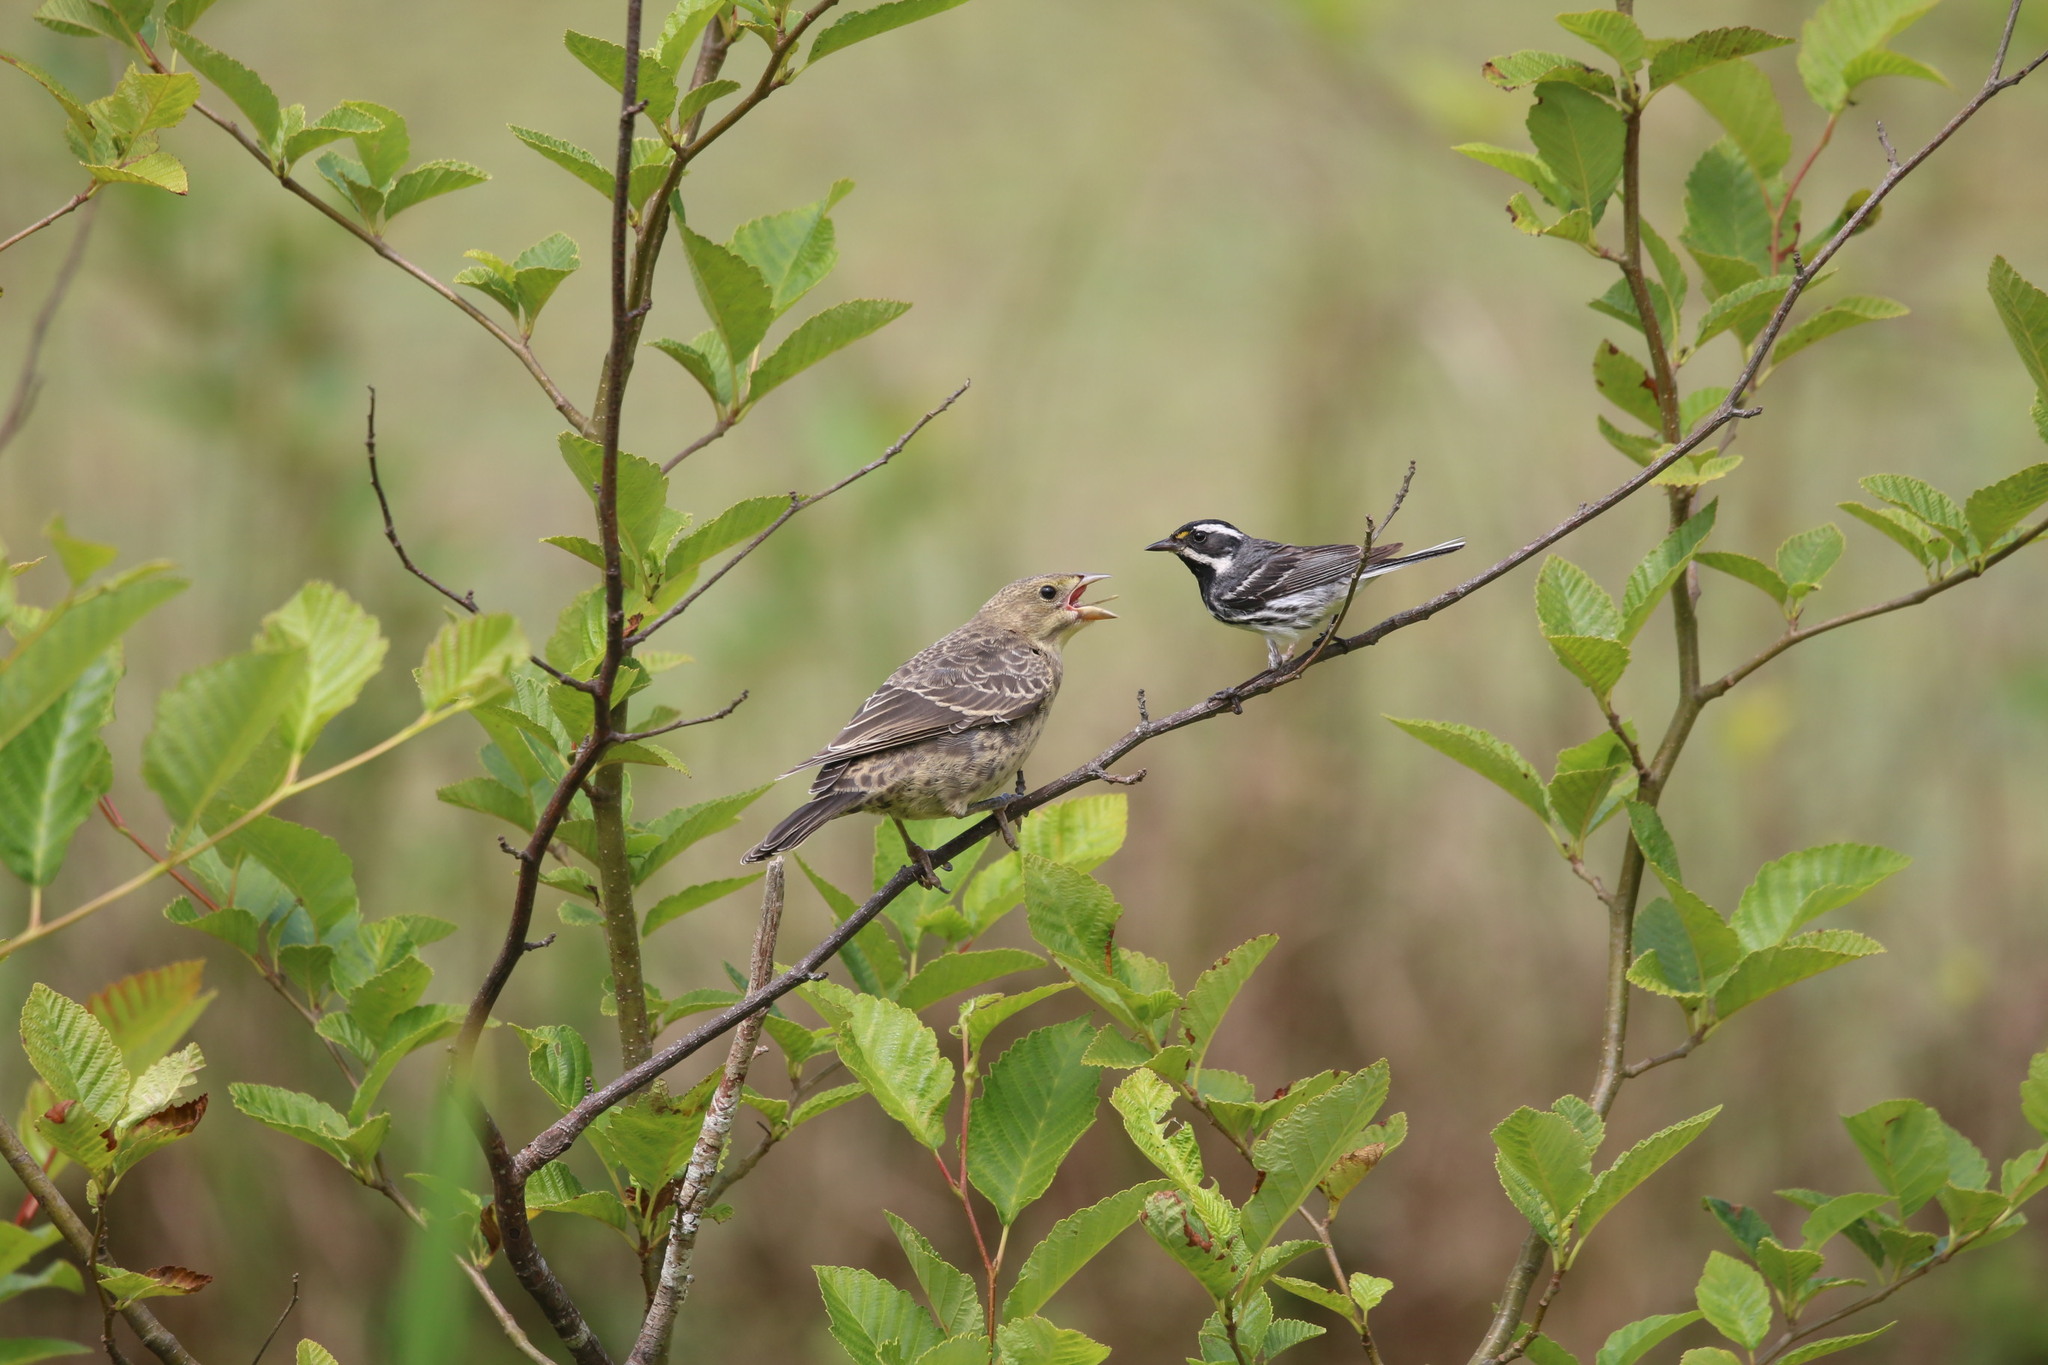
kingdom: Animalia
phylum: Chordata
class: Aves
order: Passeriformes
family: Parulidae
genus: Setophaga
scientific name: Setophaga nigrescens
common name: Black-throated gray warbler
